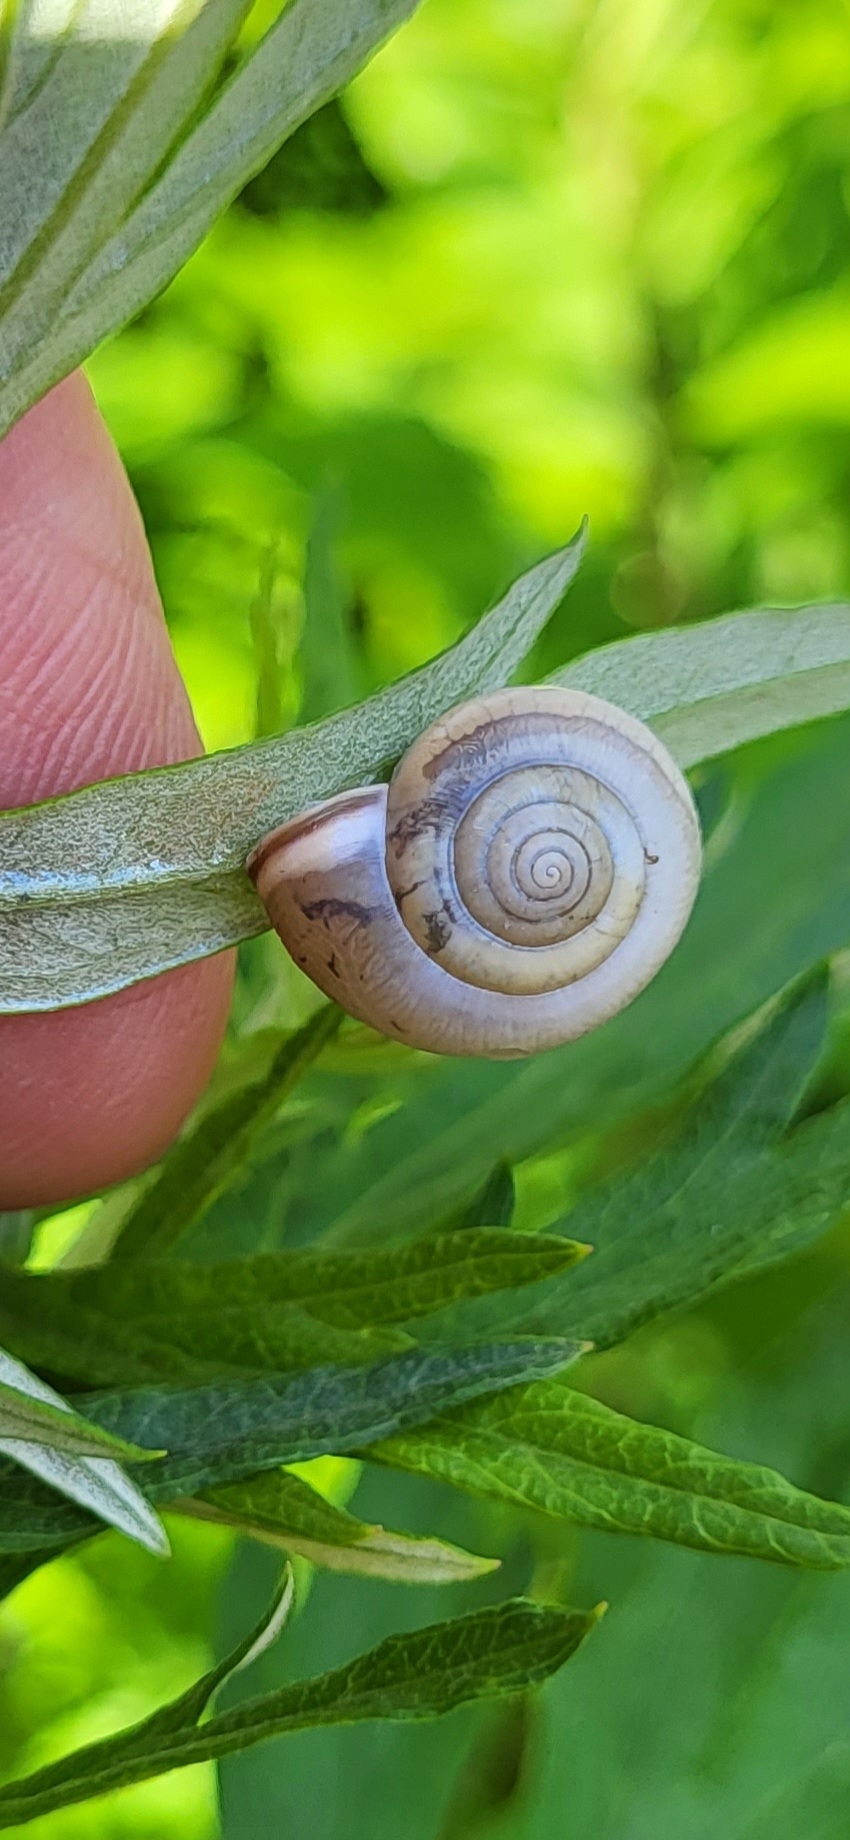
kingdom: Animalia
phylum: Mollusca
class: Gastropoda
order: Stylommatophora
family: Hygromiidae
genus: Monacha
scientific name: Monacha cartusiana
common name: Carthusian snail
